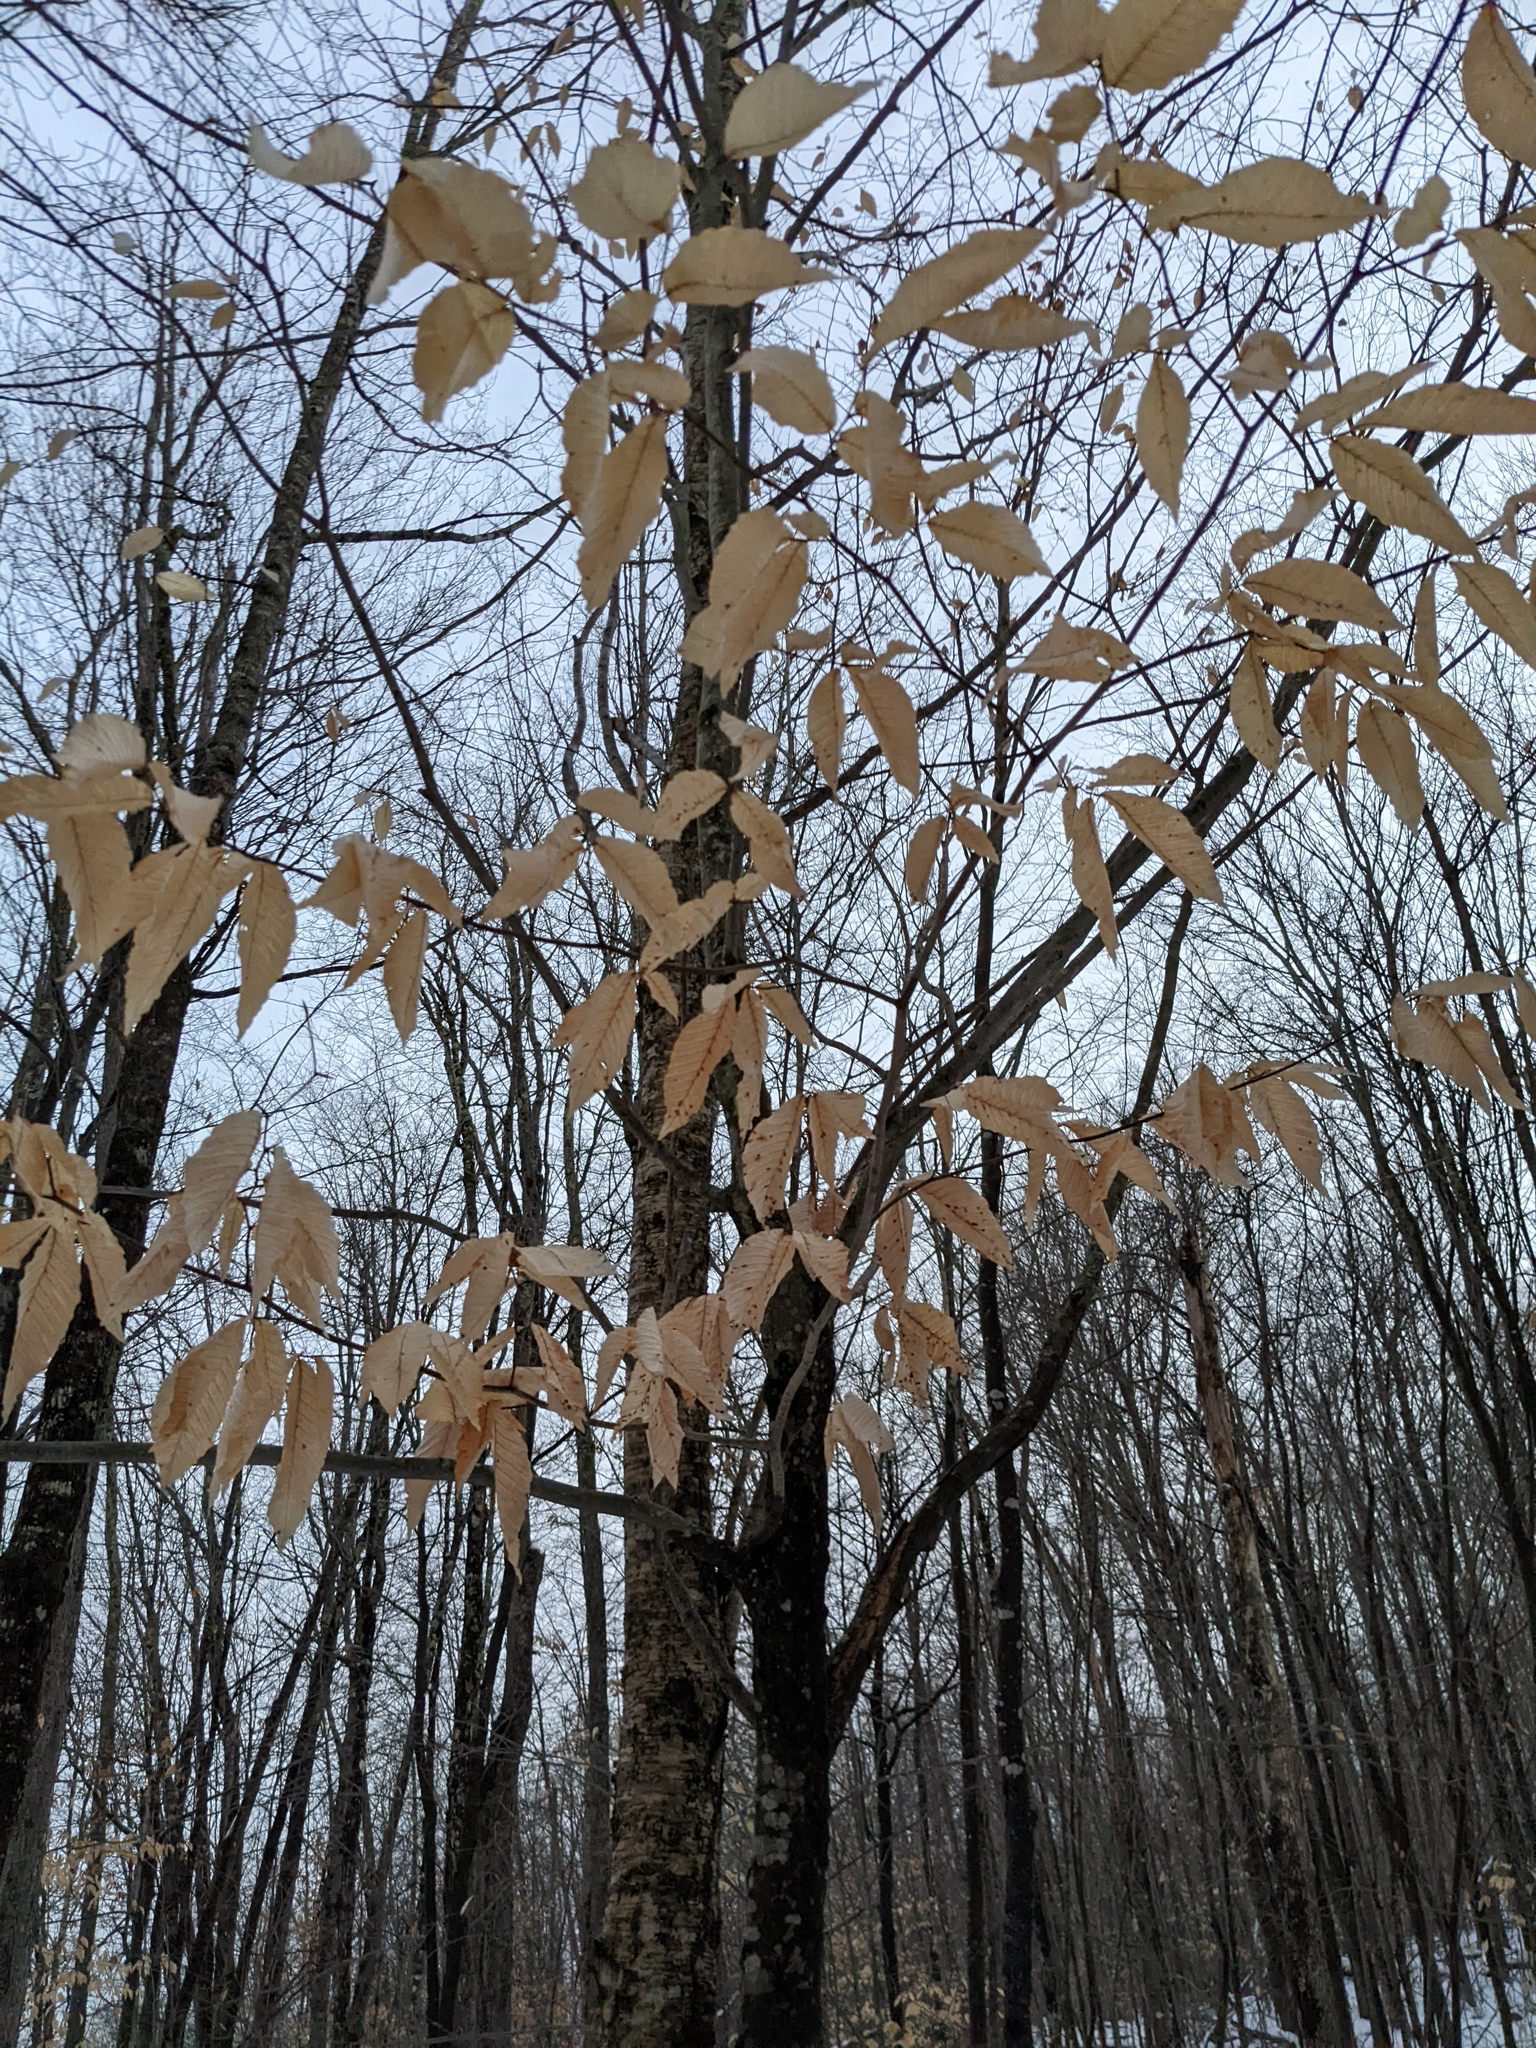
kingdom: Plantae
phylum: Tracheophyta
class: Magnoliopsida
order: Fagales
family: Fagaceae
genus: Fagus
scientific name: Fagus grandifolia
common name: American beech
